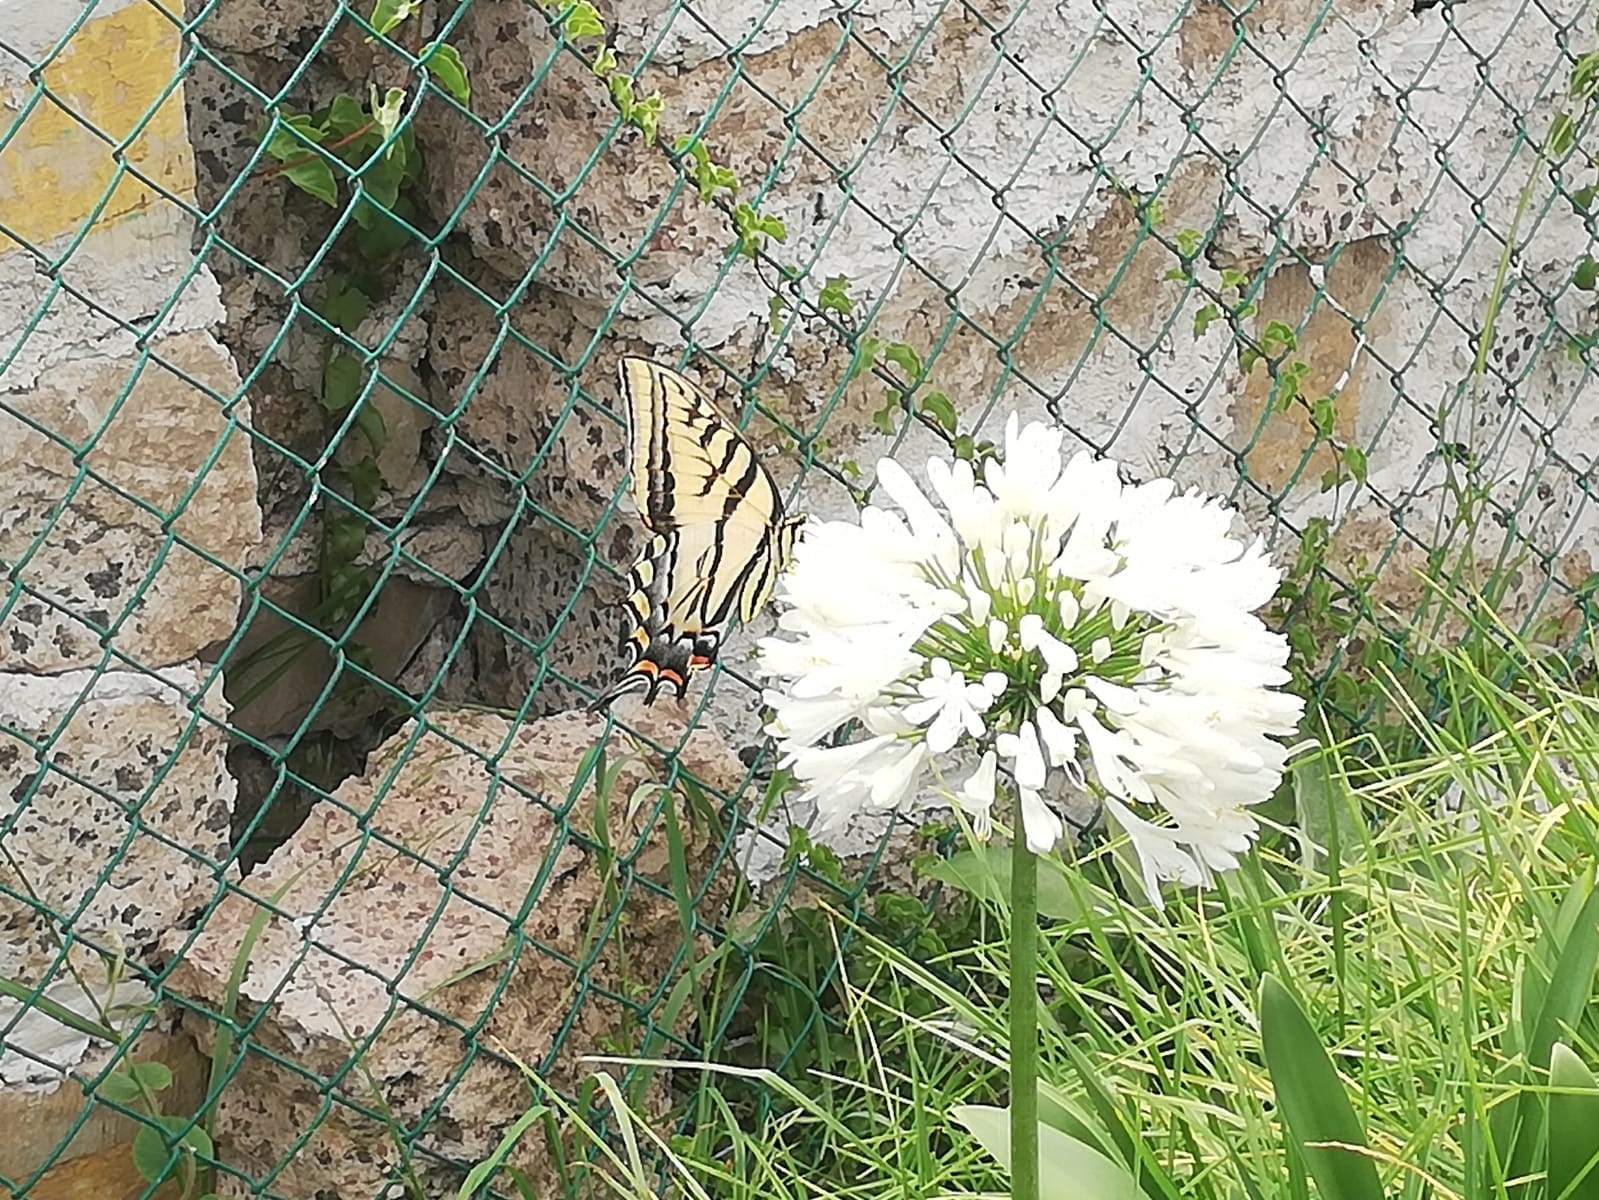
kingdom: Animalia
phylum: Arthropoda
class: Insecta
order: Lepidoptera
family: Papilionidae
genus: Papilio
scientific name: Papilio multicaudata
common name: Two-tailed tiger swallowtail
